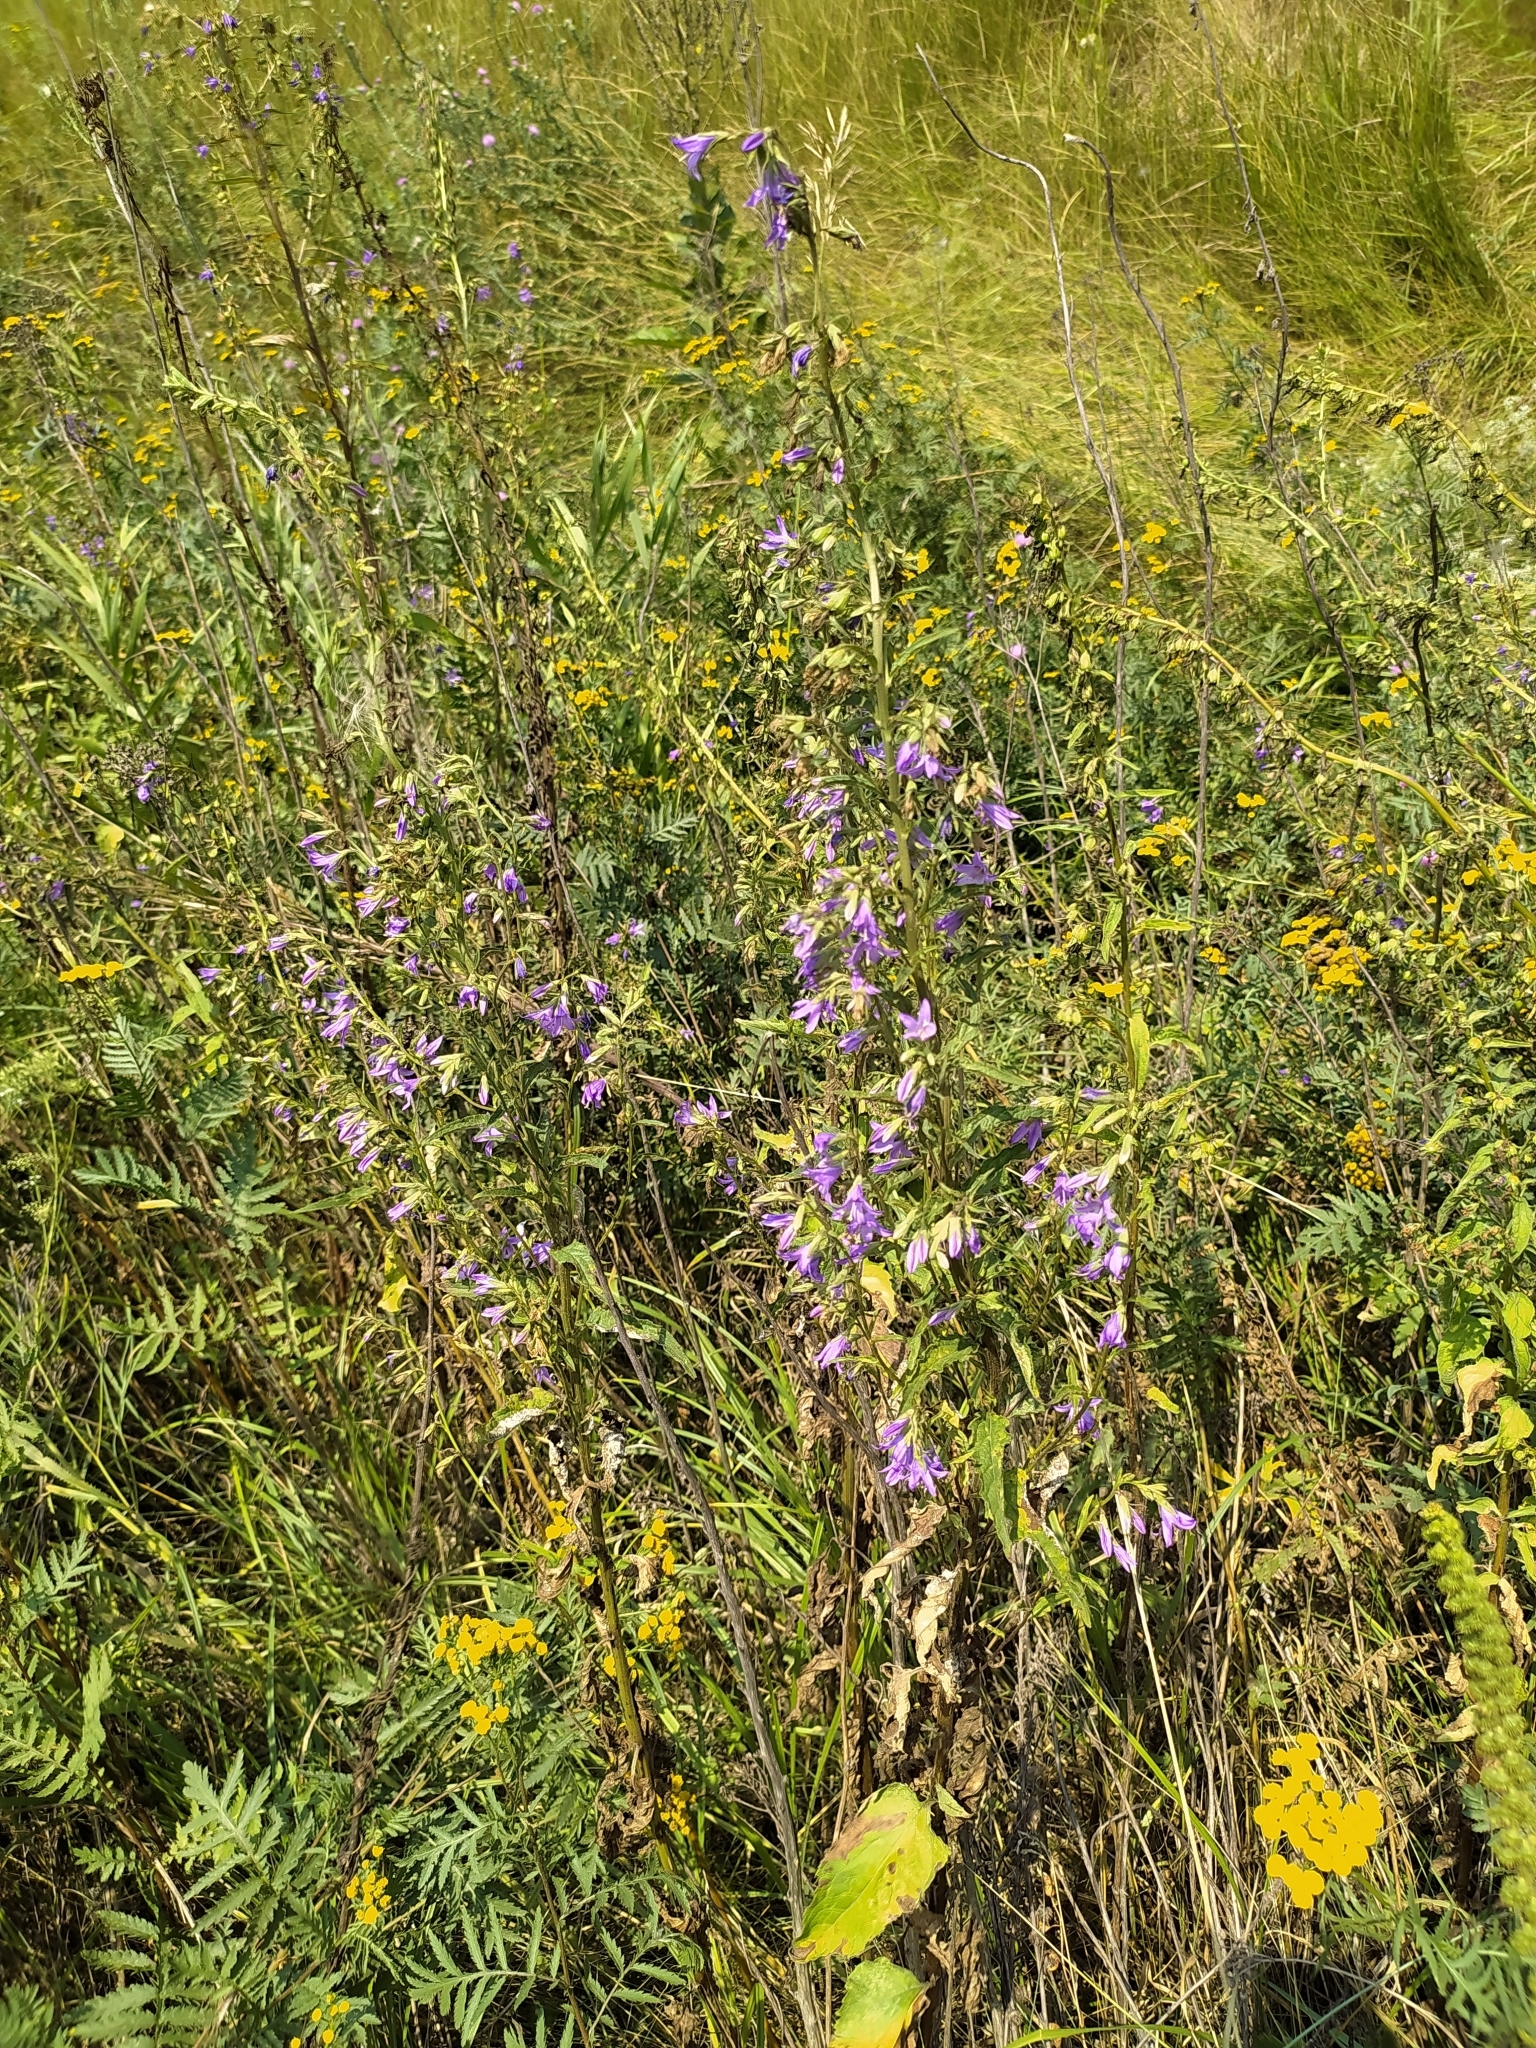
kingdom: Plantae
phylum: Tracheophyta
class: Magnoliopsida
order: Asterales
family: Campanulaceae
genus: Campanula
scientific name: Campanula rapunculoides
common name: Creeping bellflower
